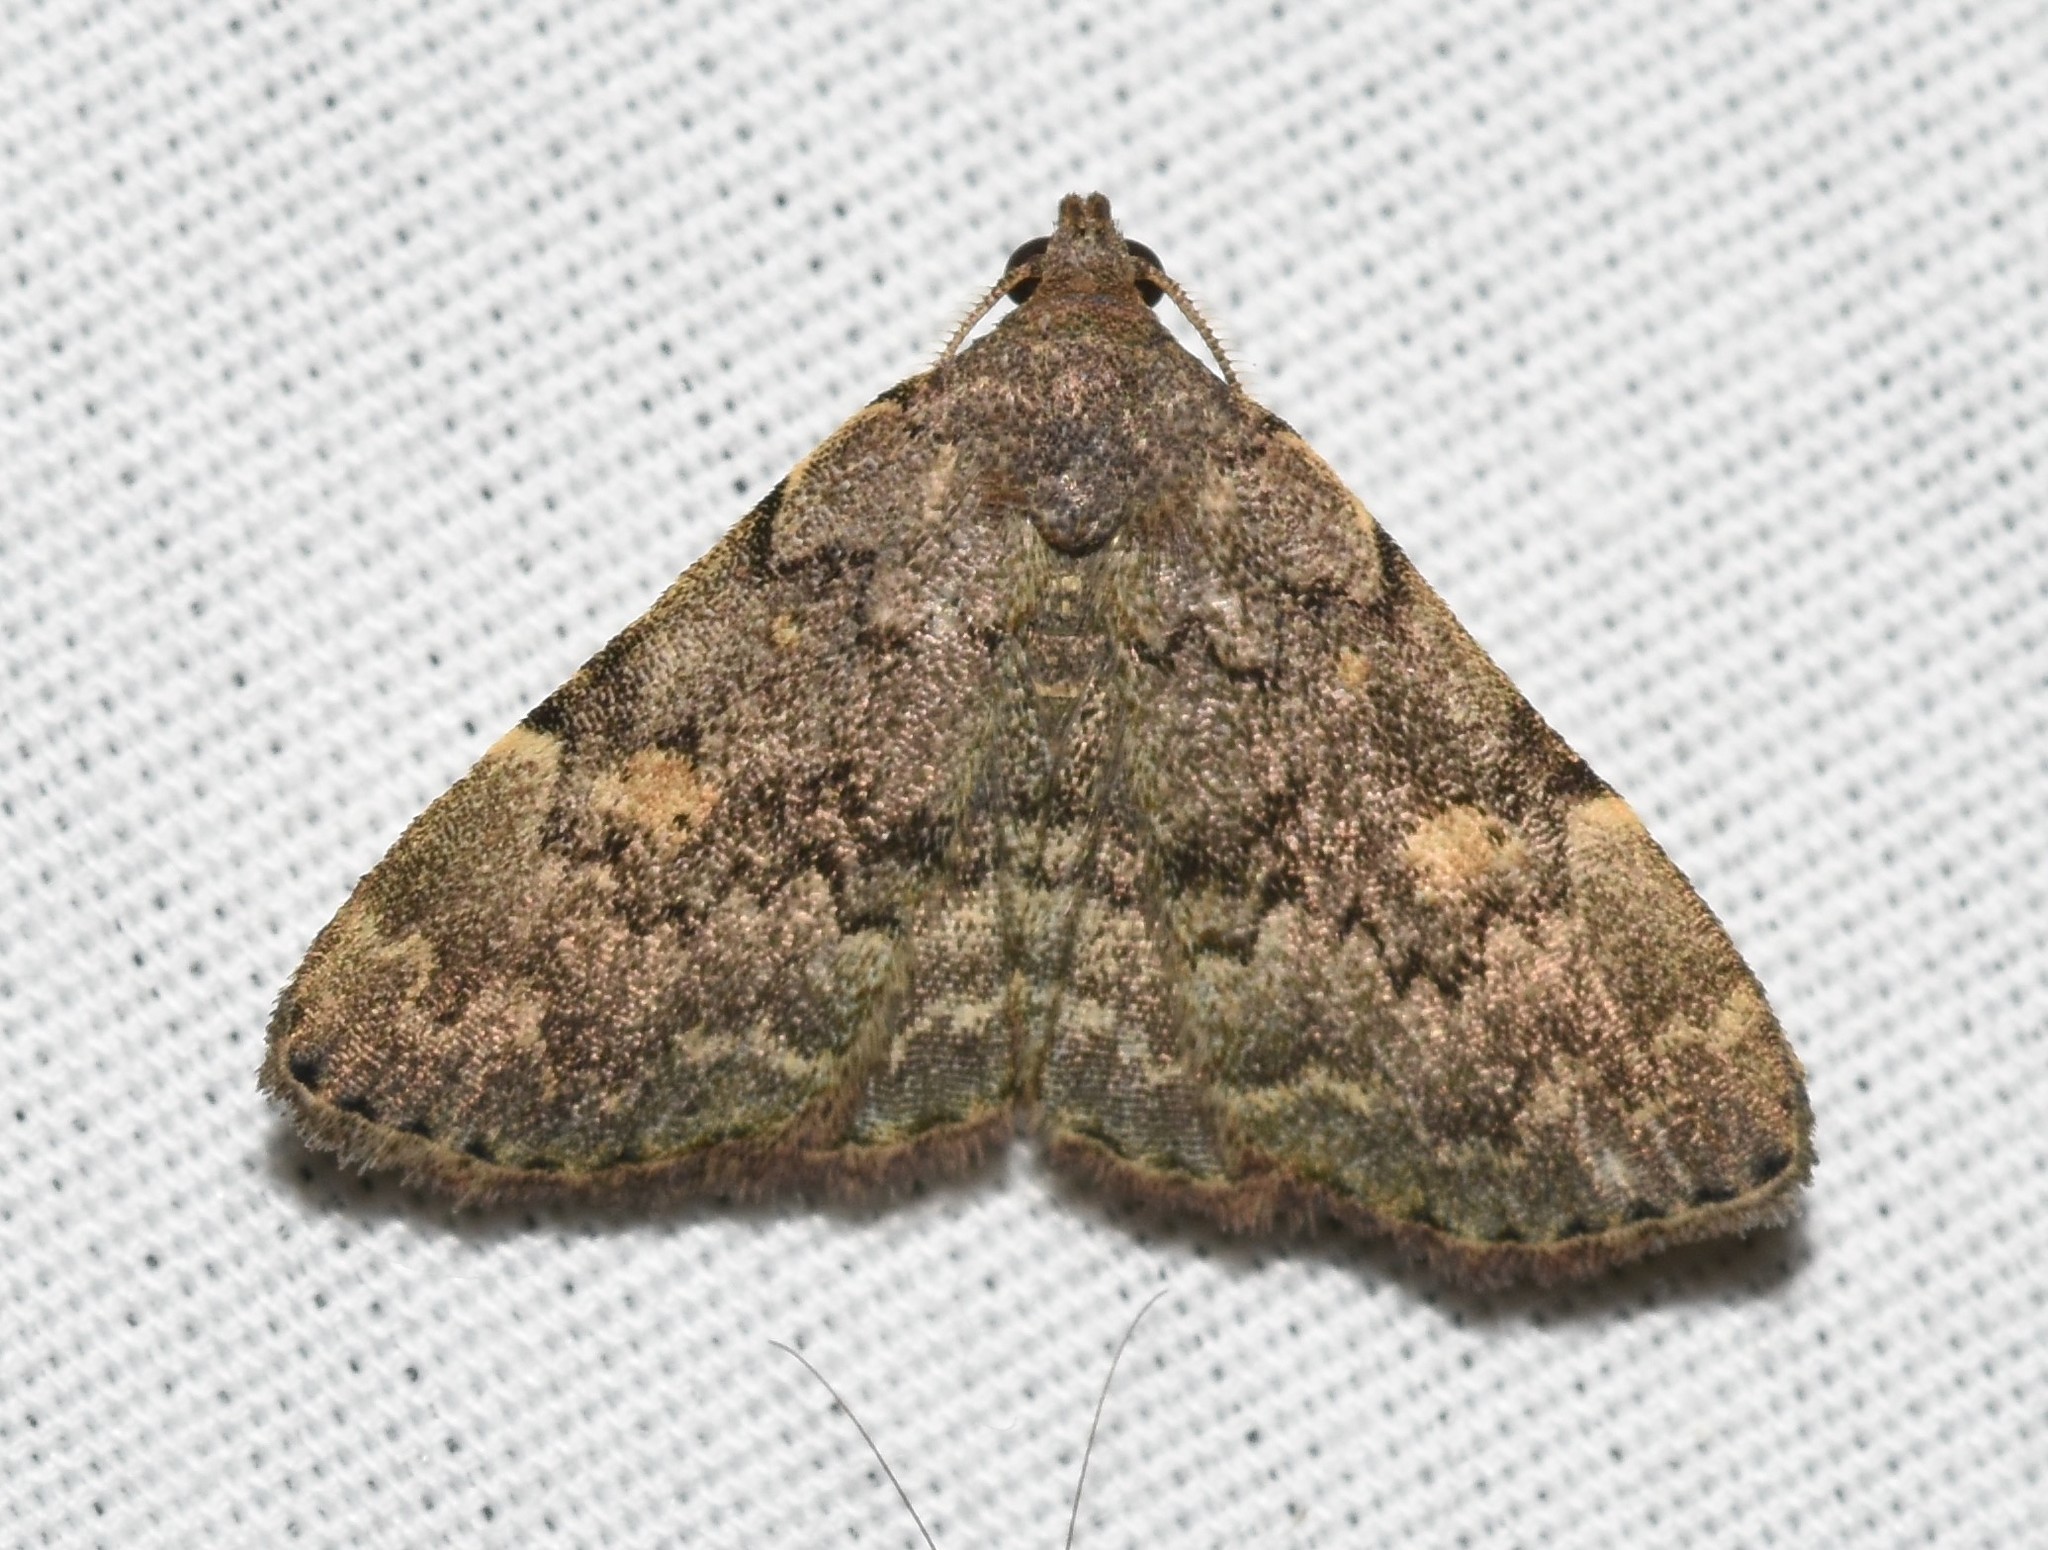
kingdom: Animalia
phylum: Arthropoda
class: Insecta
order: Lepidoptera
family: Erebidae
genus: Idia
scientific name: Idia aemula
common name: Common idia moth
